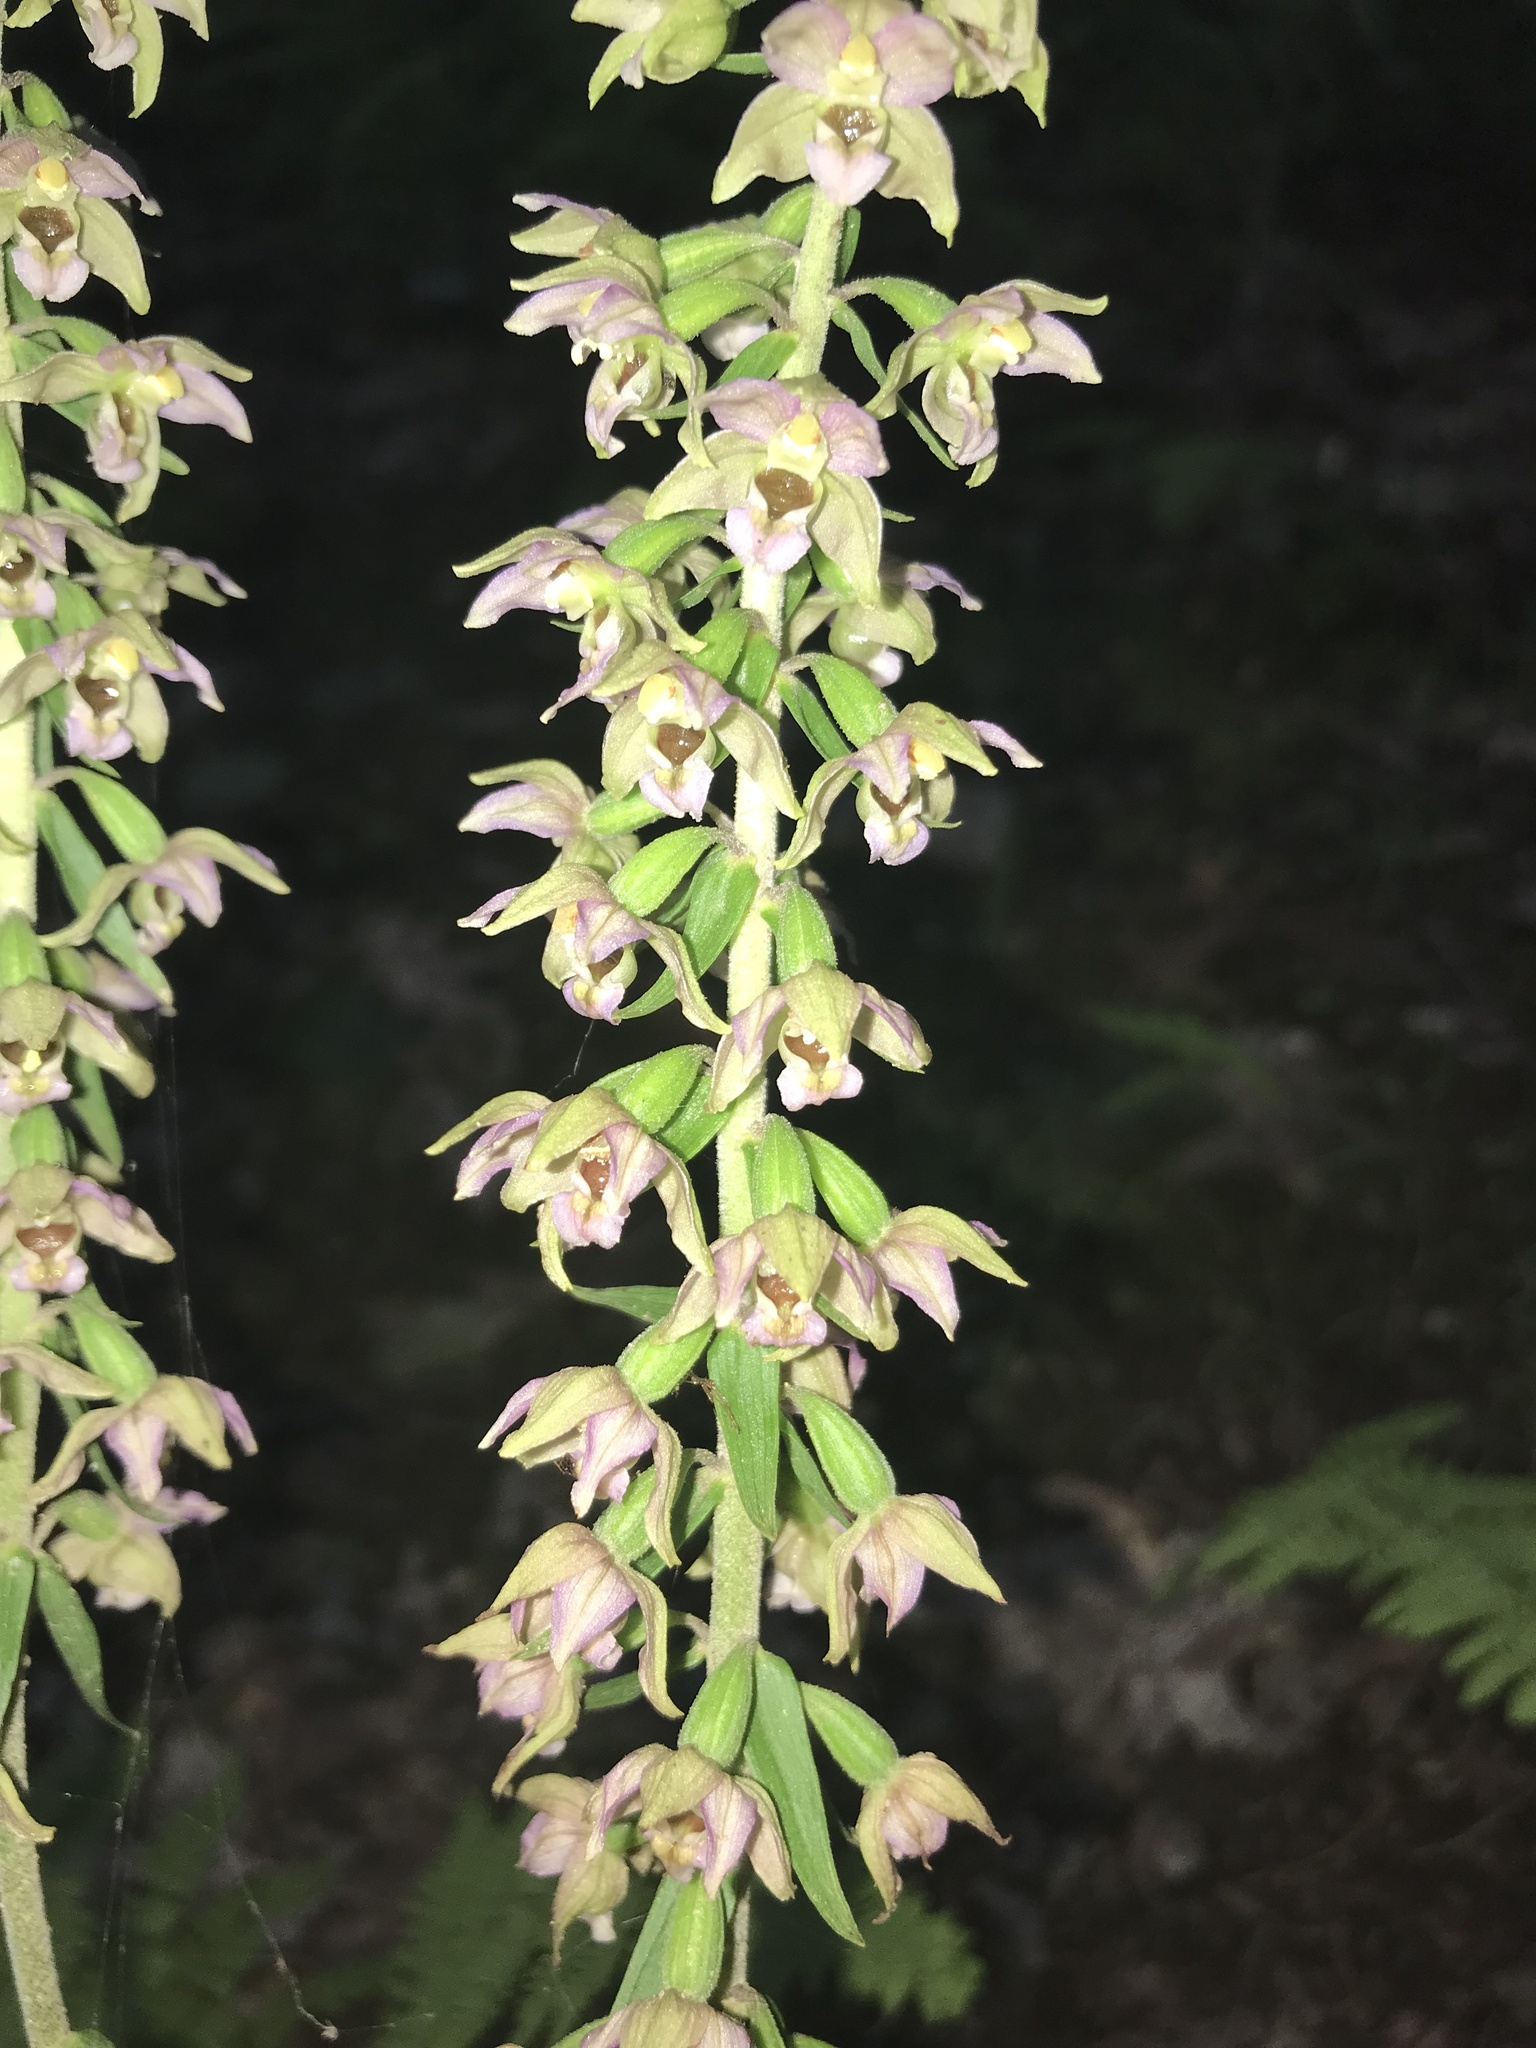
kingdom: Plantae
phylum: Tracheophyta
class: Liliopsida
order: Asparagales
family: Orchidaceae
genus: Epipactis
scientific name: Epipactis helleborine
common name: Broad-leaved helleborine
